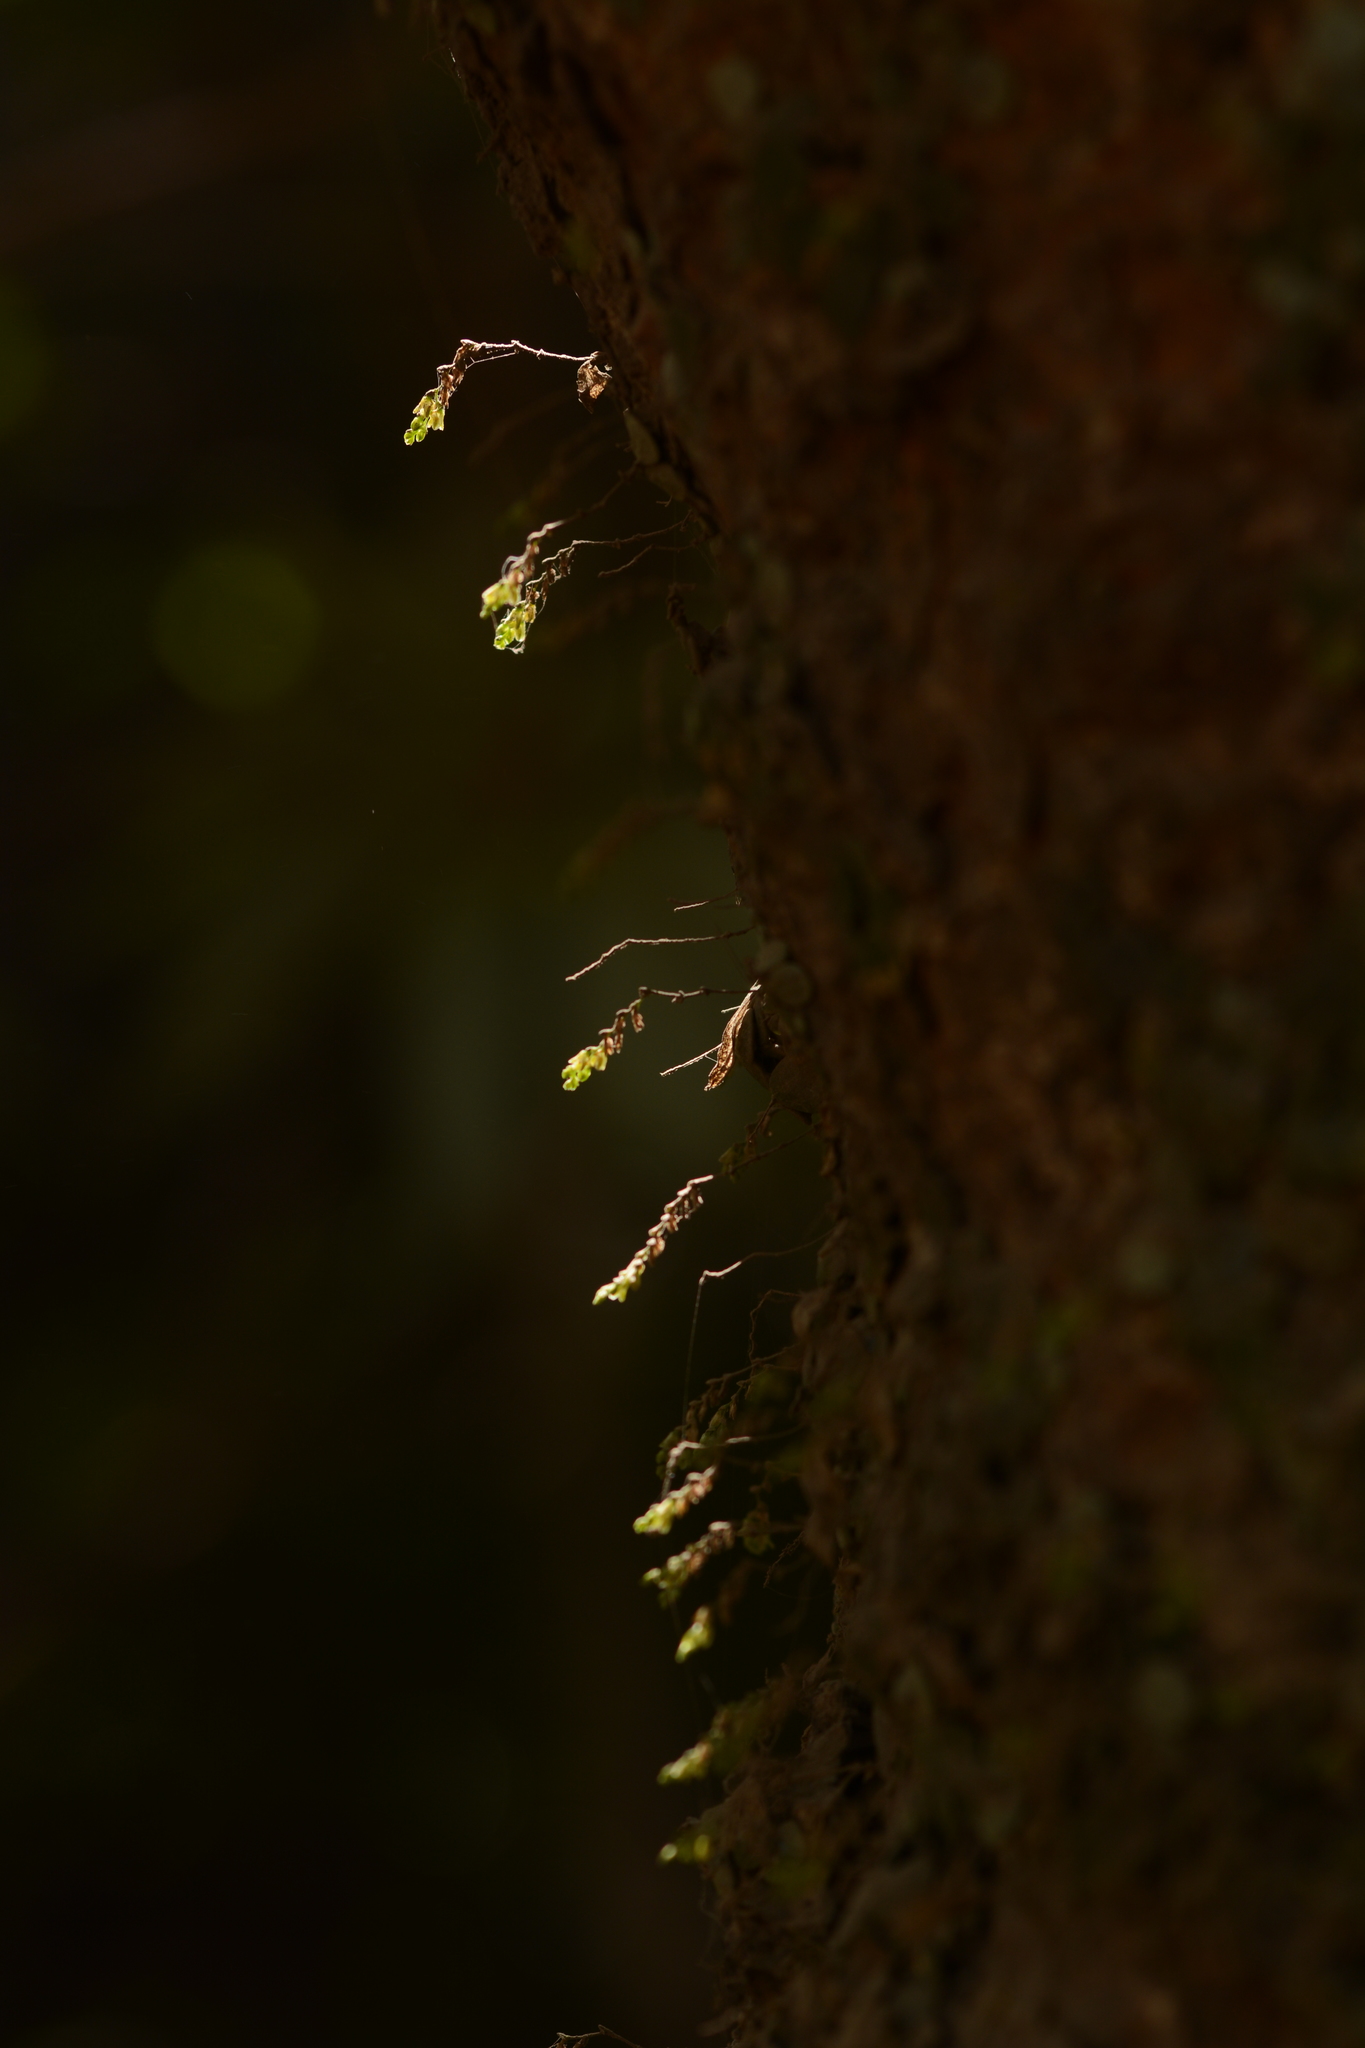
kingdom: Plantae
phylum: Tracheophyta
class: Liliopsida
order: Asparagales
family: Orchidaceae
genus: Porpax
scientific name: Porpax exilis
